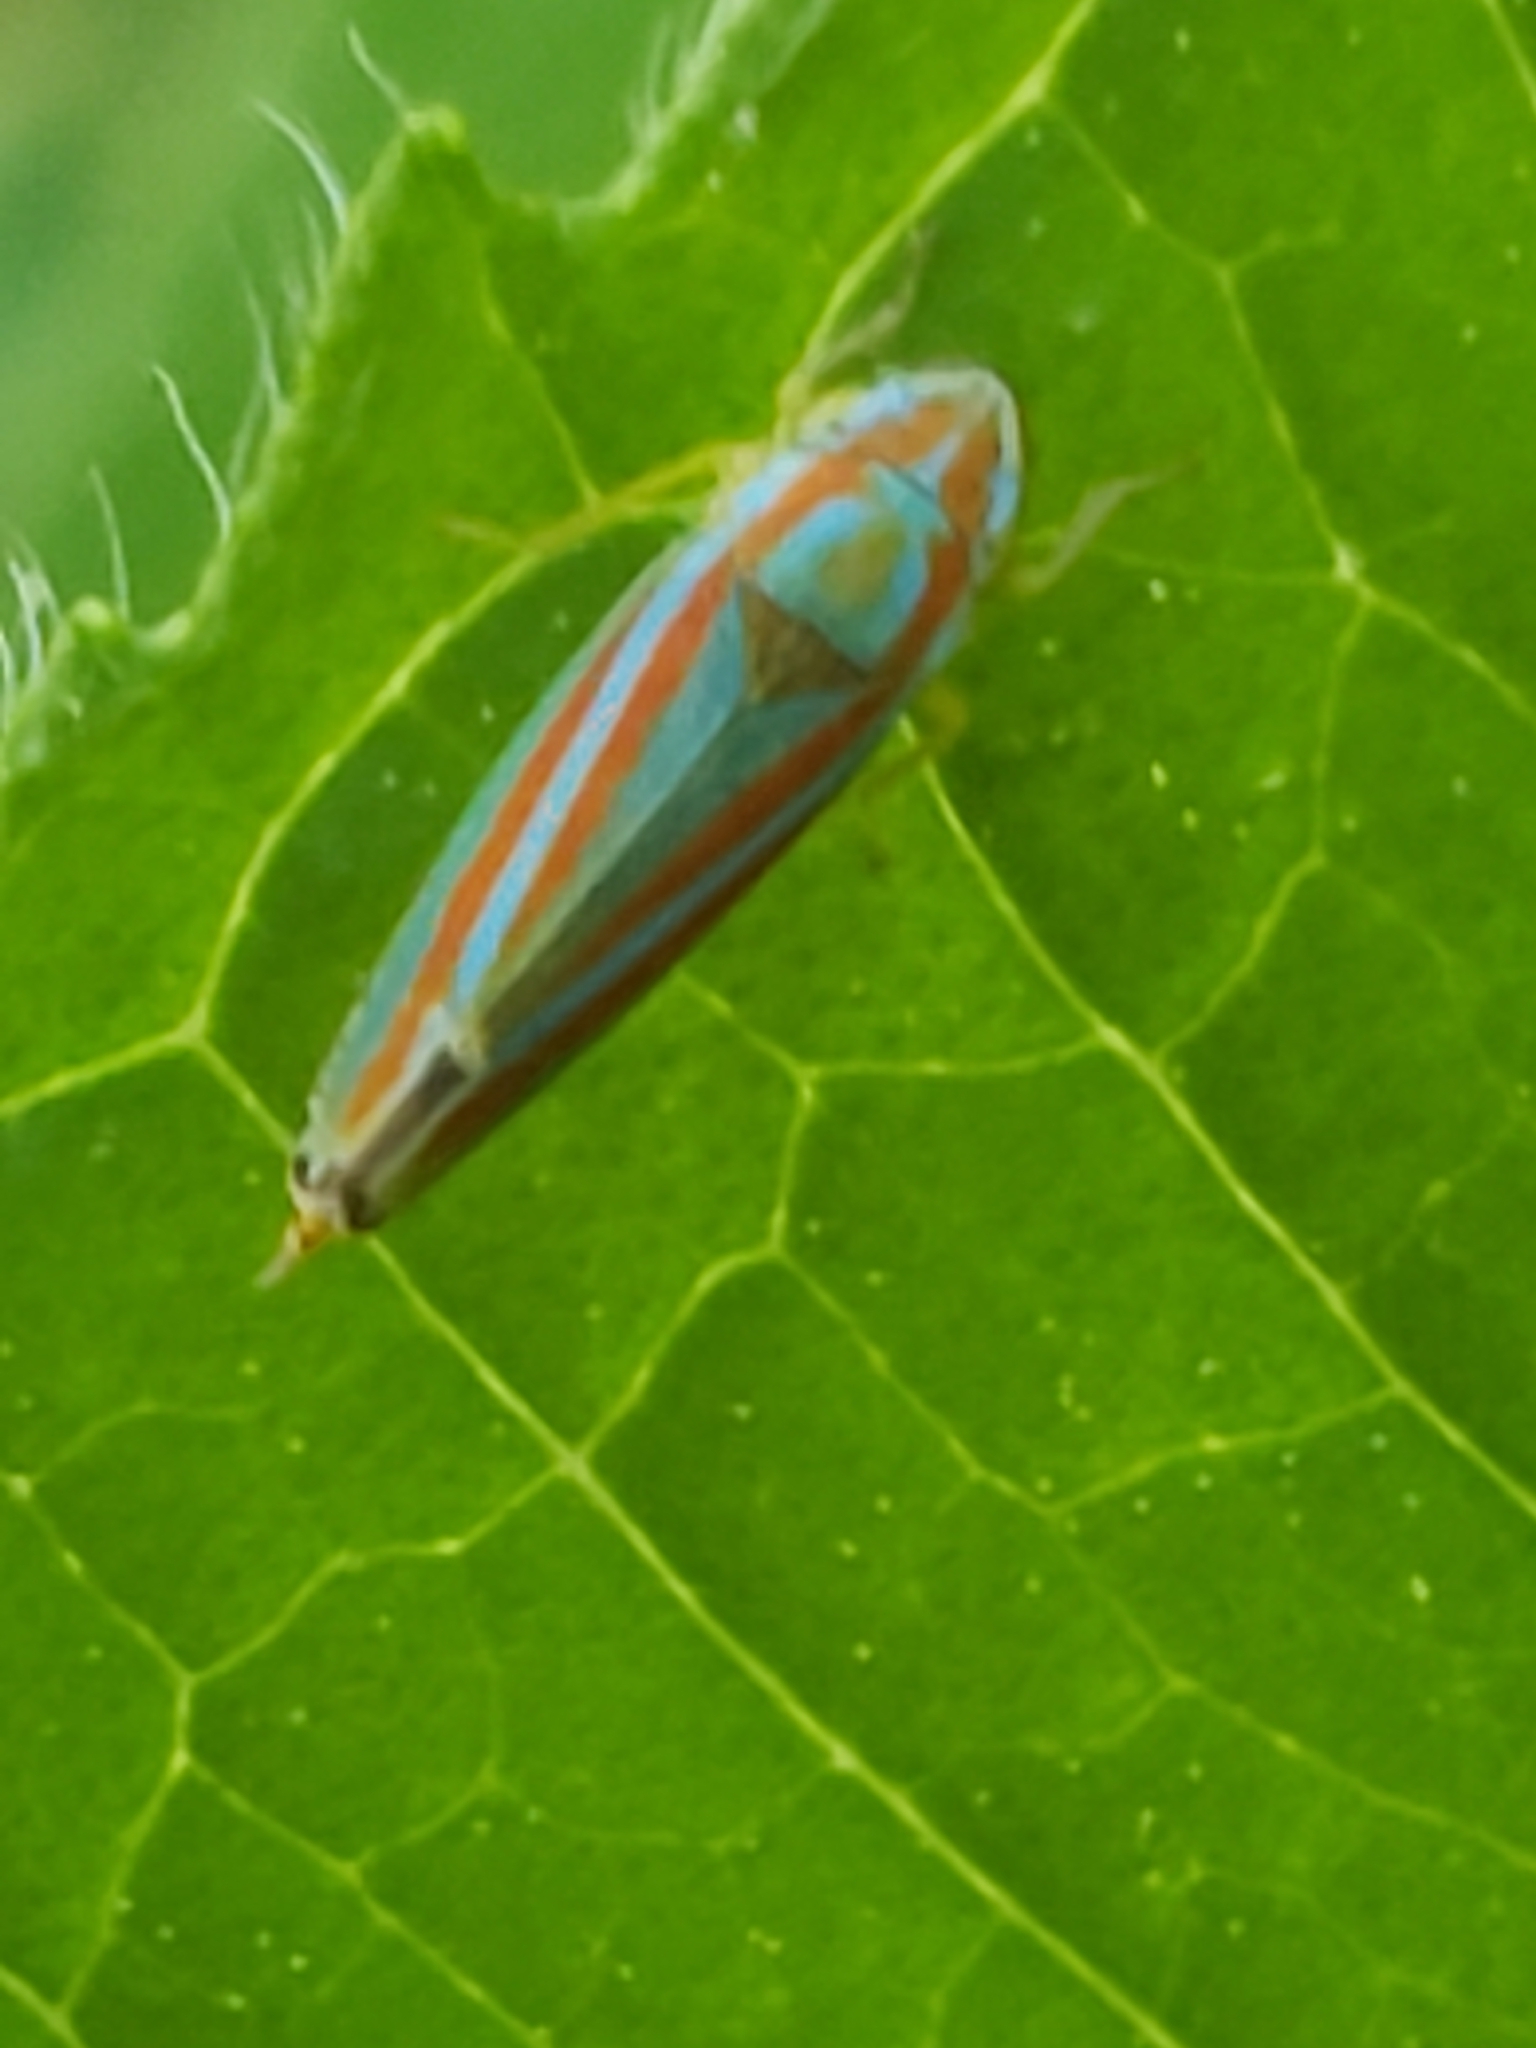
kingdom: Animalia
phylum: Arthropoda
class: Insecta
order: Hemiptera
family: Cicadellidae
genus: Graphocephala
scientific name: Graphocephala versuta
